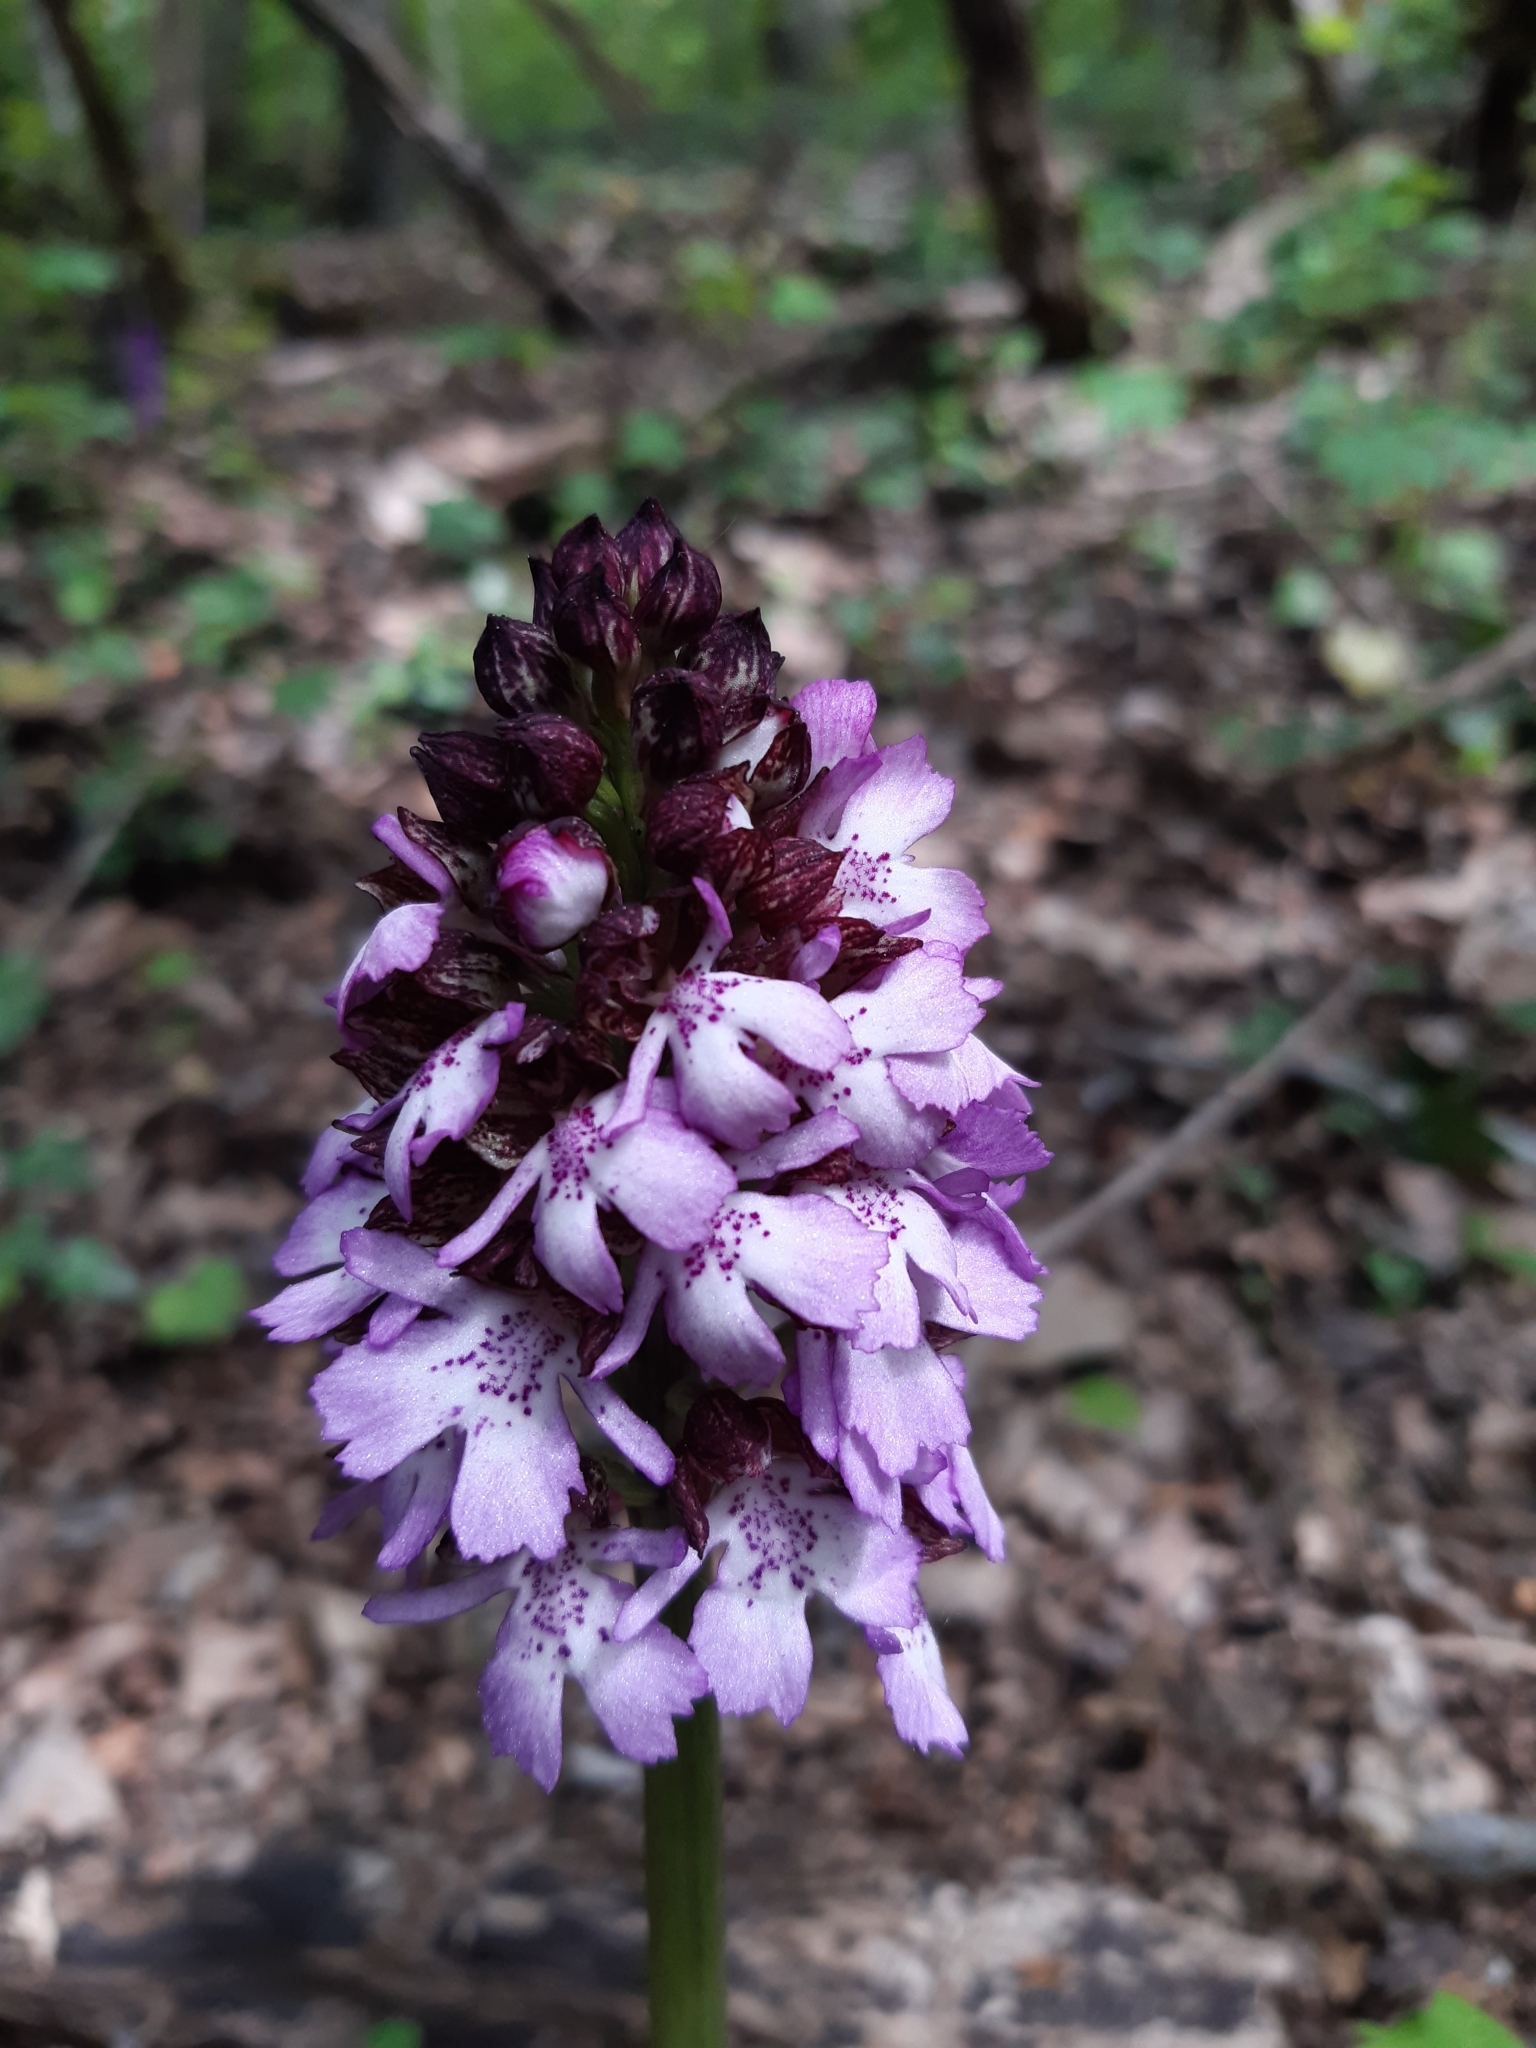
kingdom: Plantae
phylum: Tracheophyta
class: Liliopsida
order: Asparagales
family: Orchidaceae
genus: Orchis
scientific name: Orchis purpurea
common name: Lady orchid
